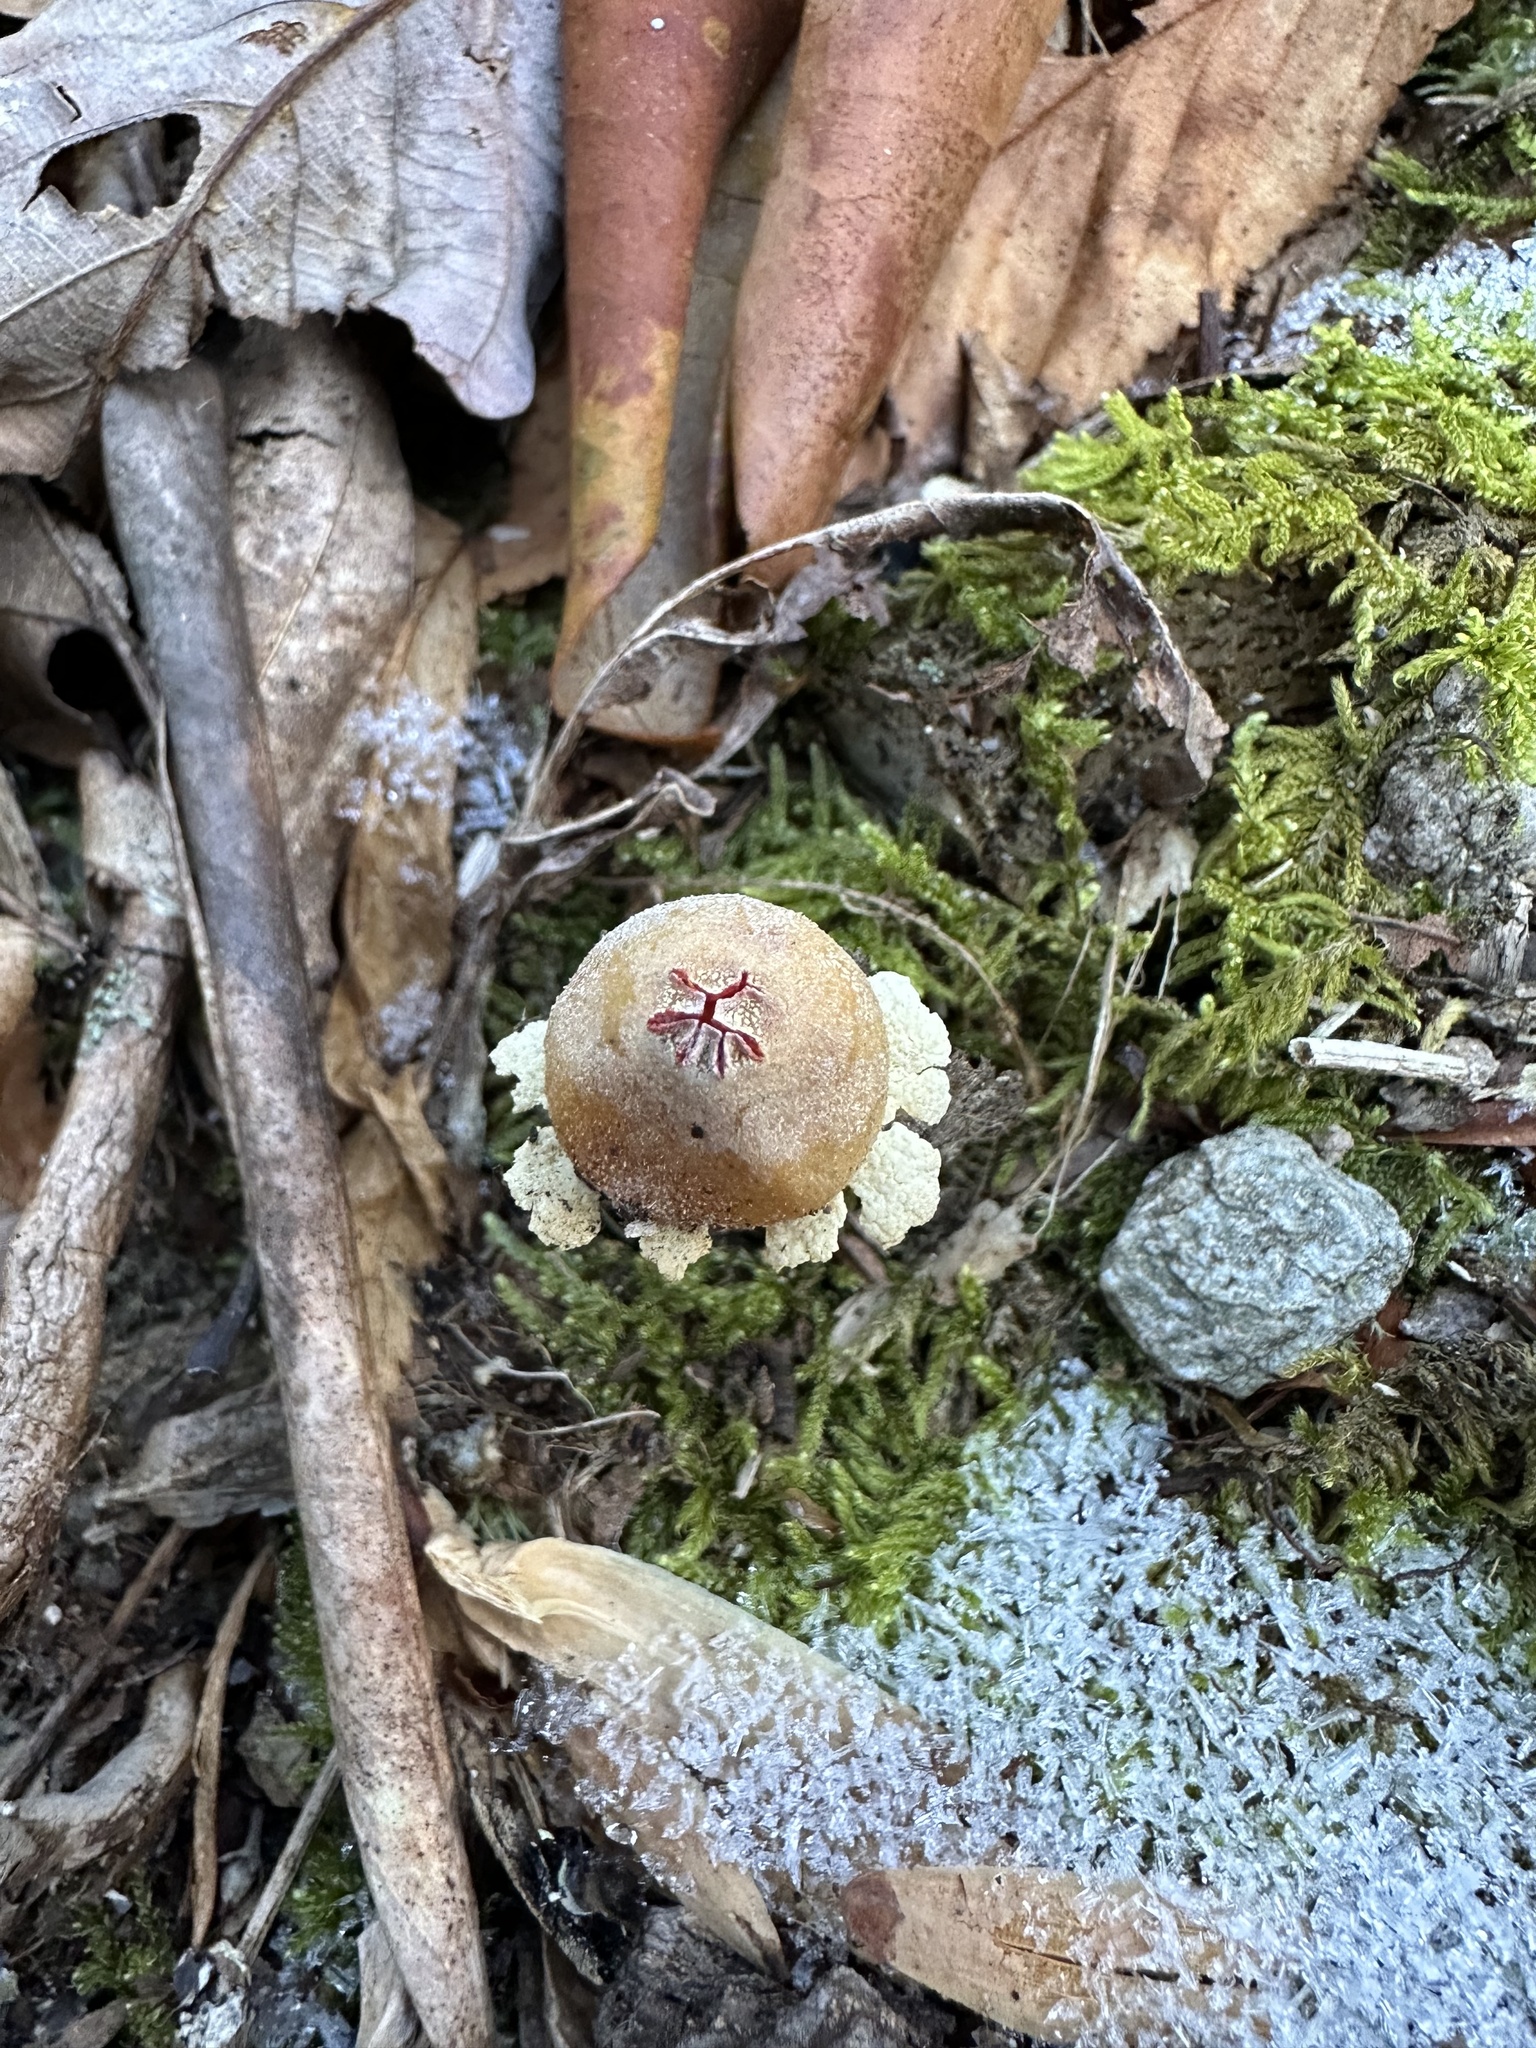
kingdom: Fungi
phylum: Basidiomycota
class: Agaricomycetes
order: Boletales
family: Calostomataceae
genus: Calostoma
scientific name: Calostoma lutescens
